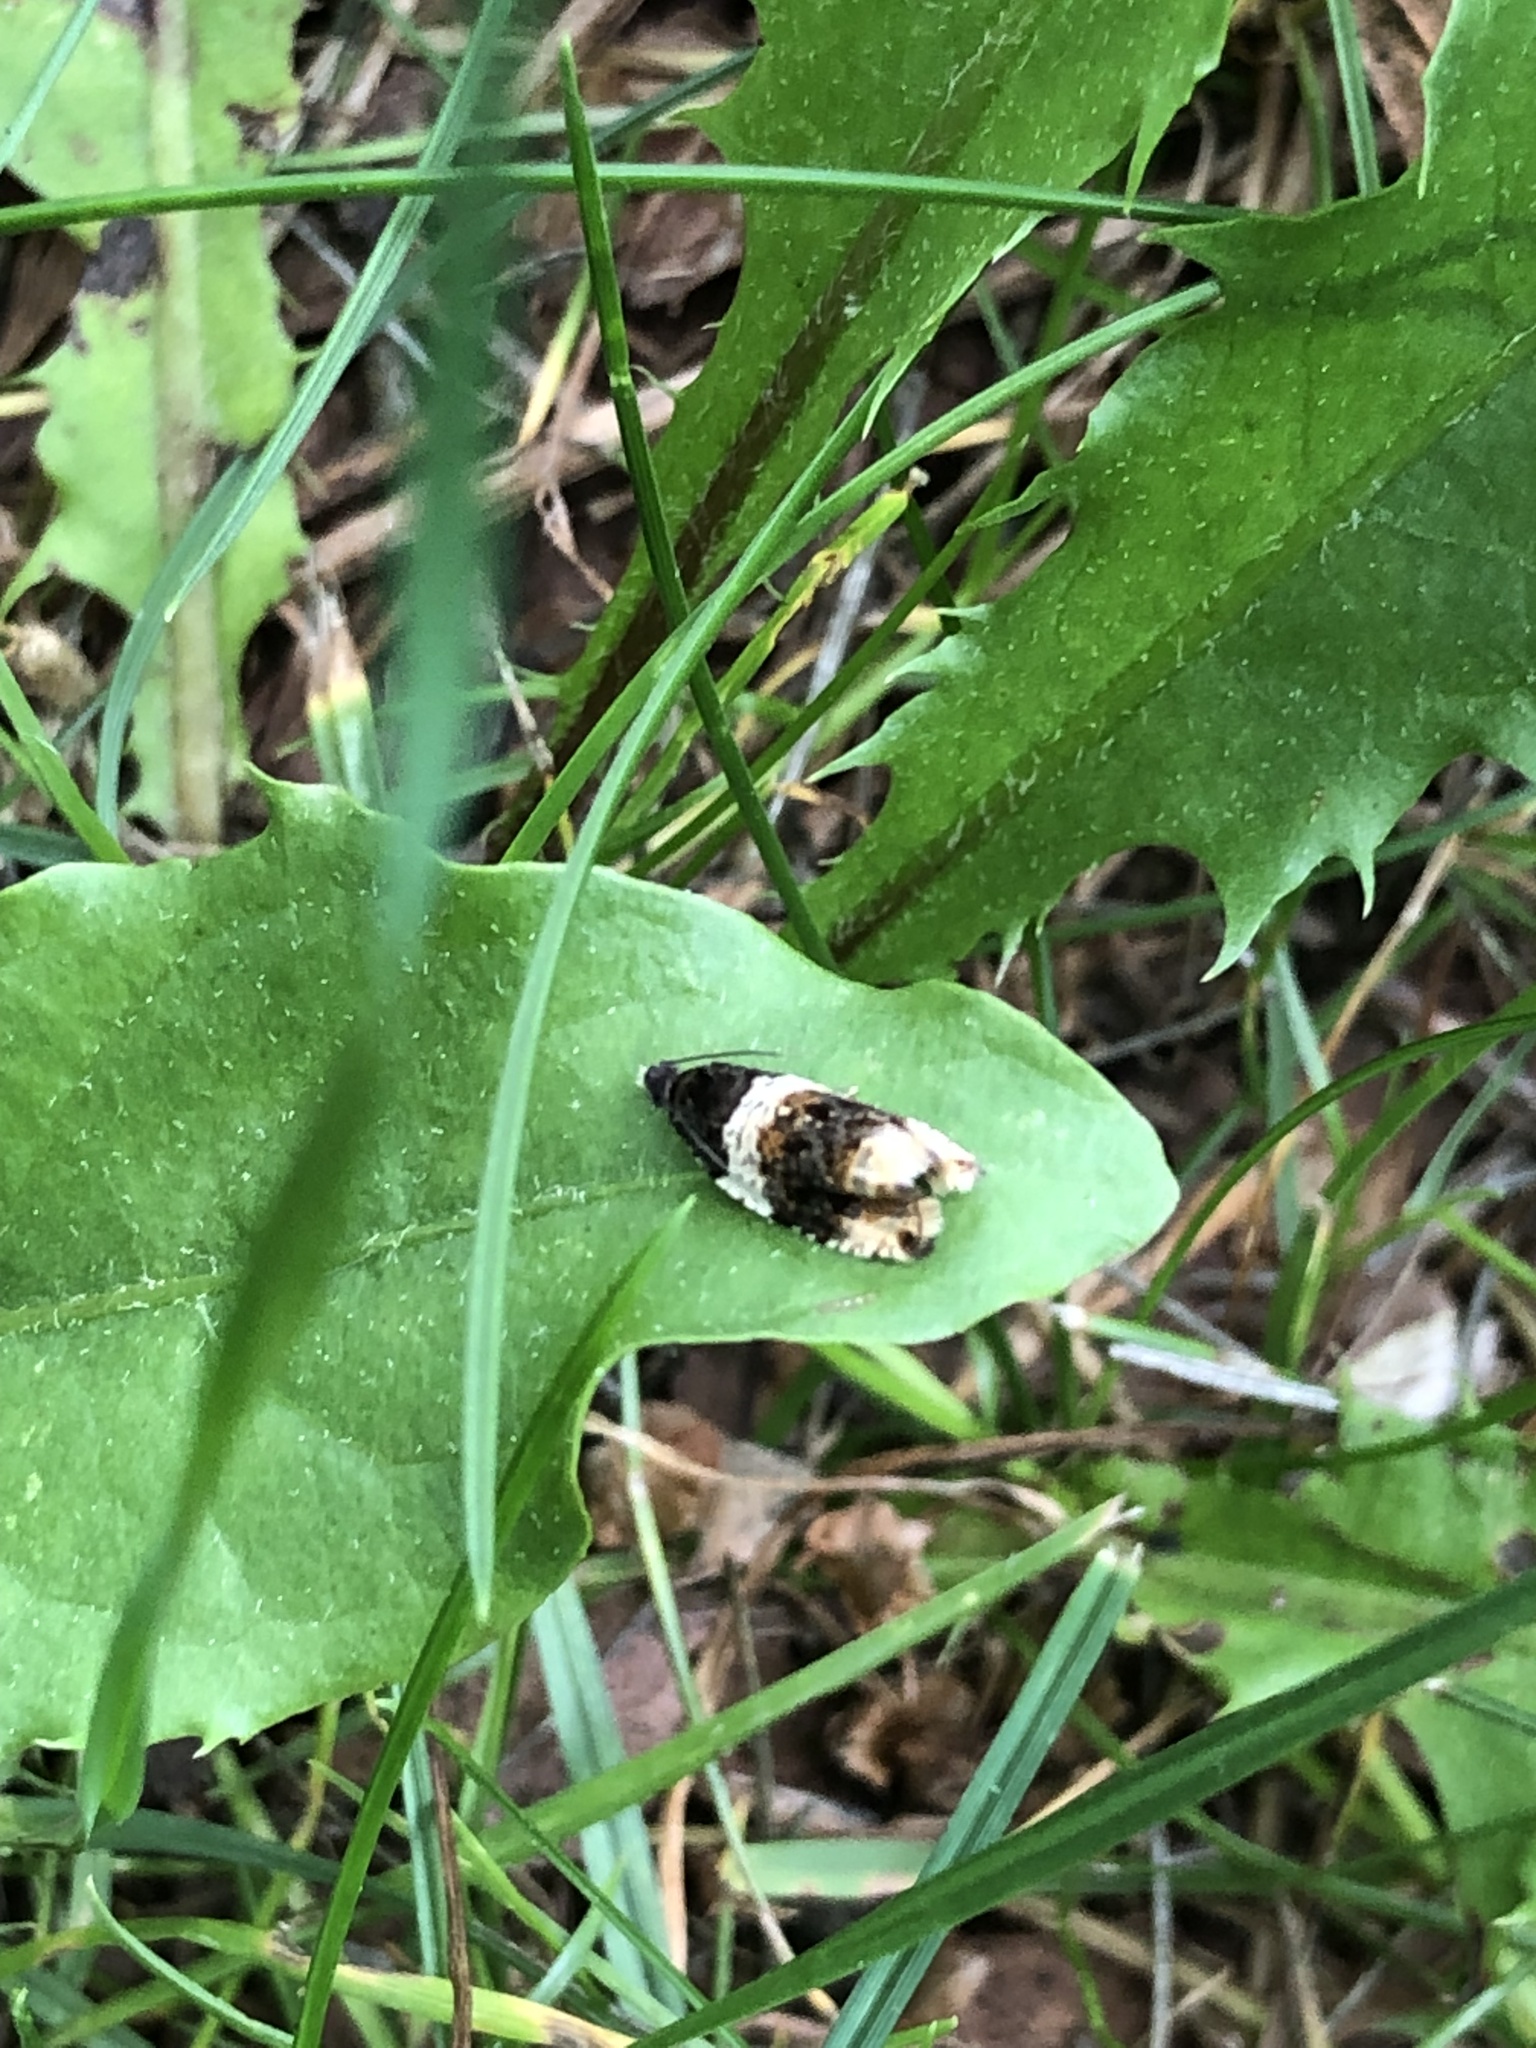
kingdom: Animalia
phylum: Arthropoda
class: Insecta
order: Lepidoptera
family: Tortricidae
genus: Olethreutes
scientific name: Olethreutes fasciatana
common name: Banded olethreutes moth
